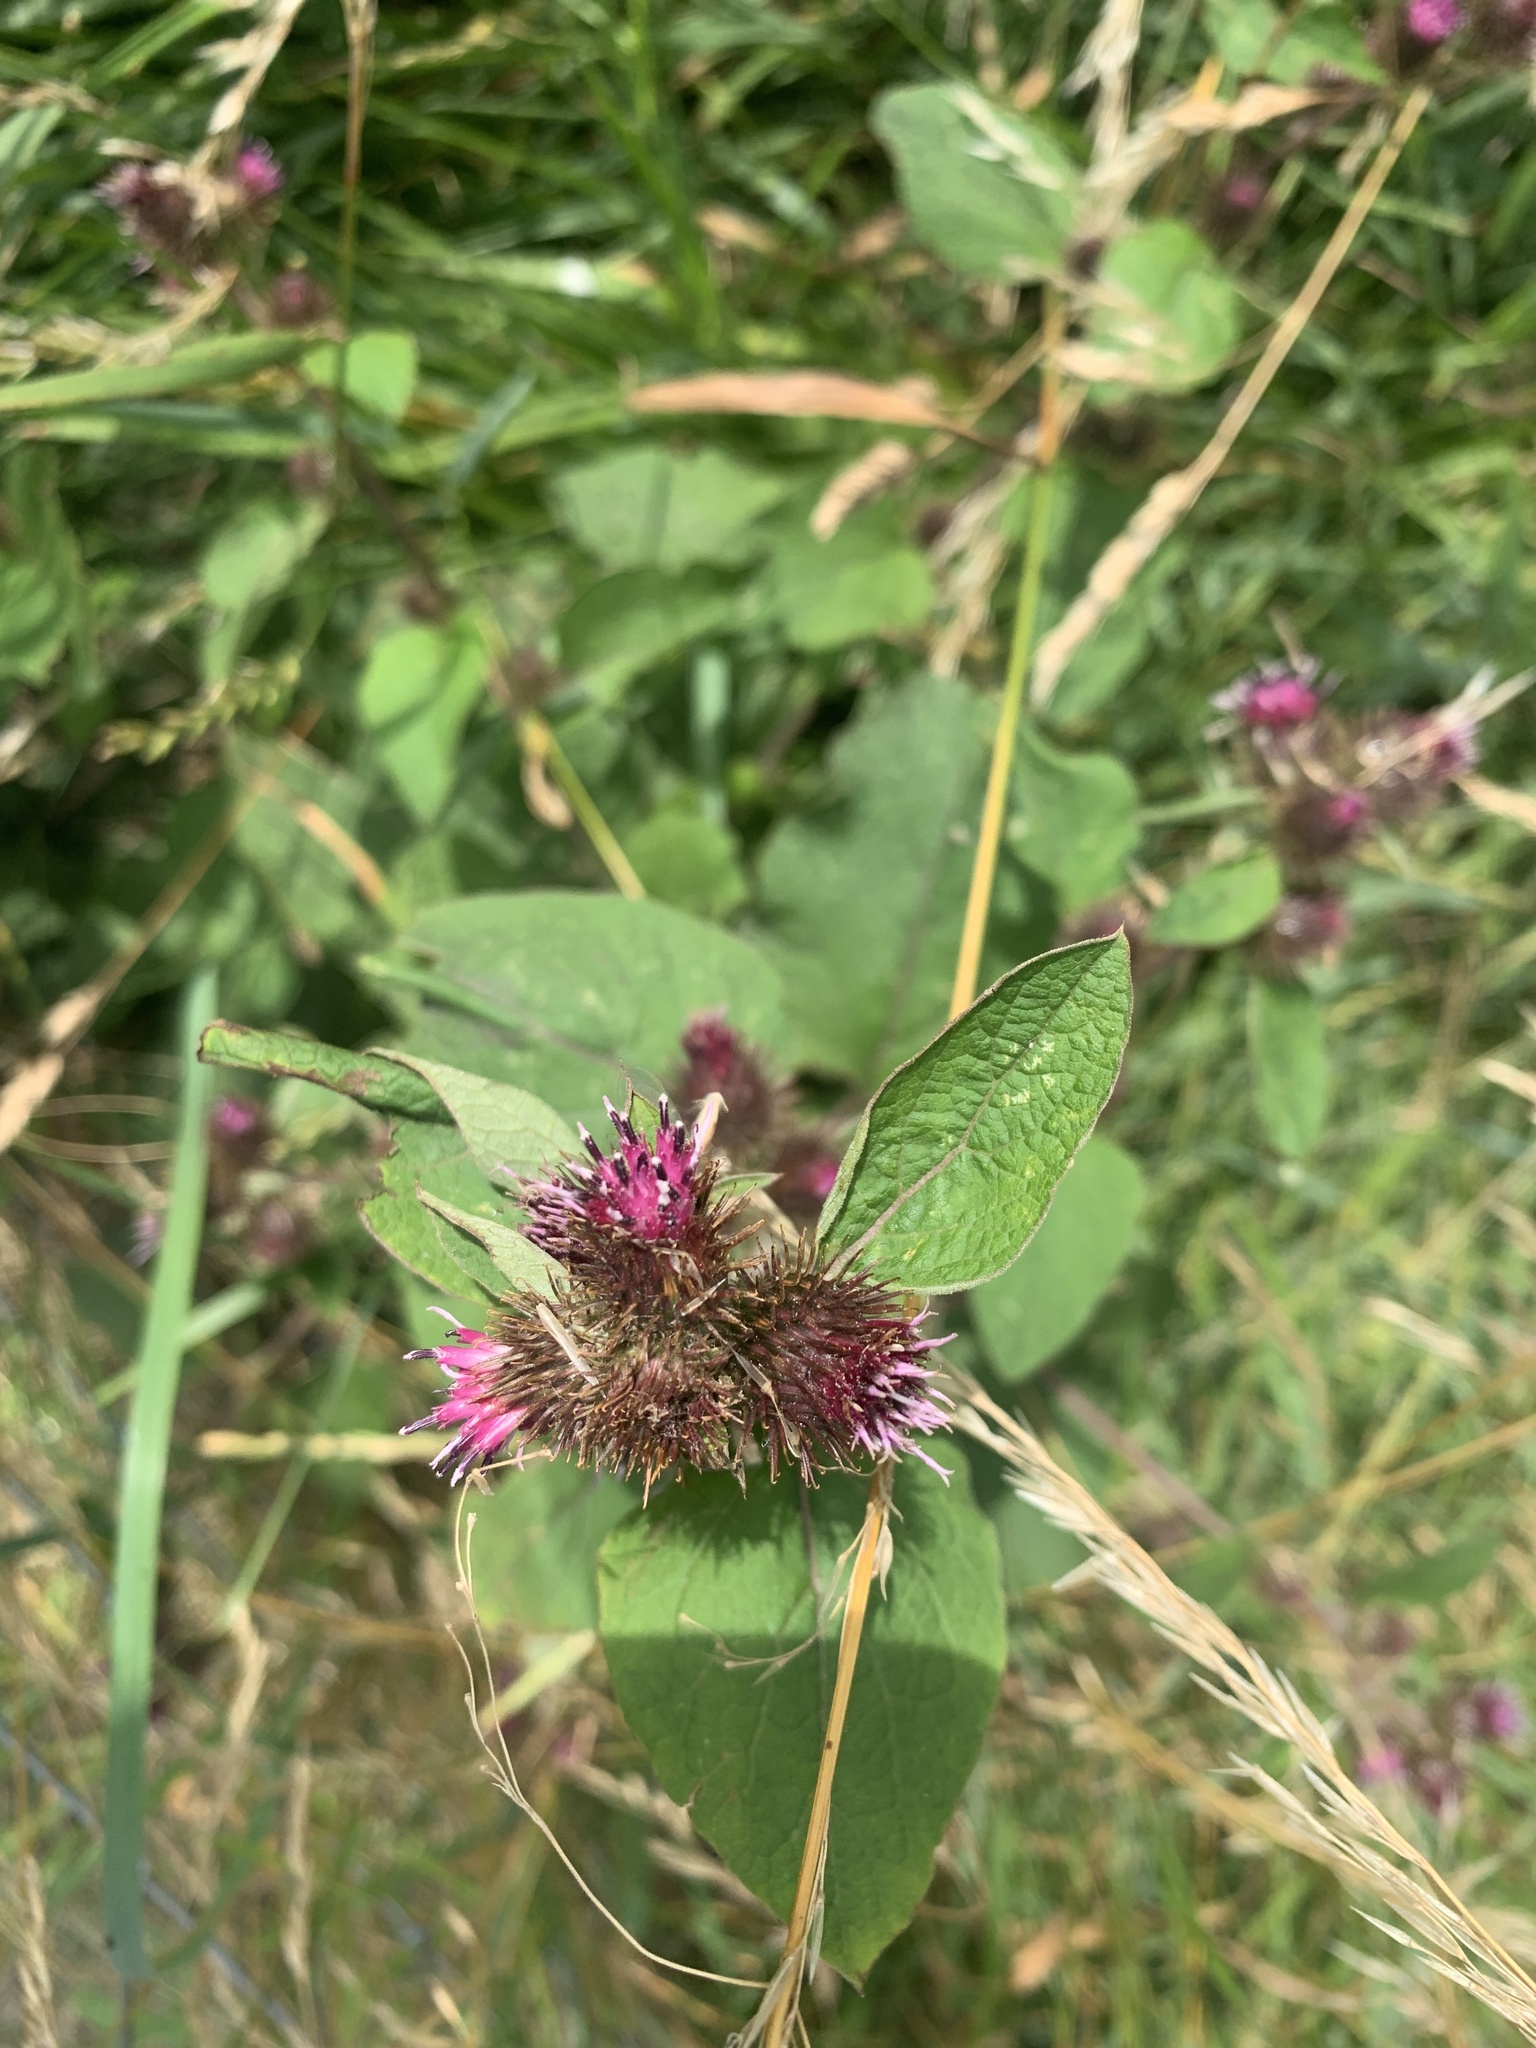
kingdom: Plantae
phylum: Tracheophyta
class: Magnoliopsida
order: Asterales
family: Asteraceae
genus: Arctium
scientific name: Arctium minus
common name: Lesser burdock
